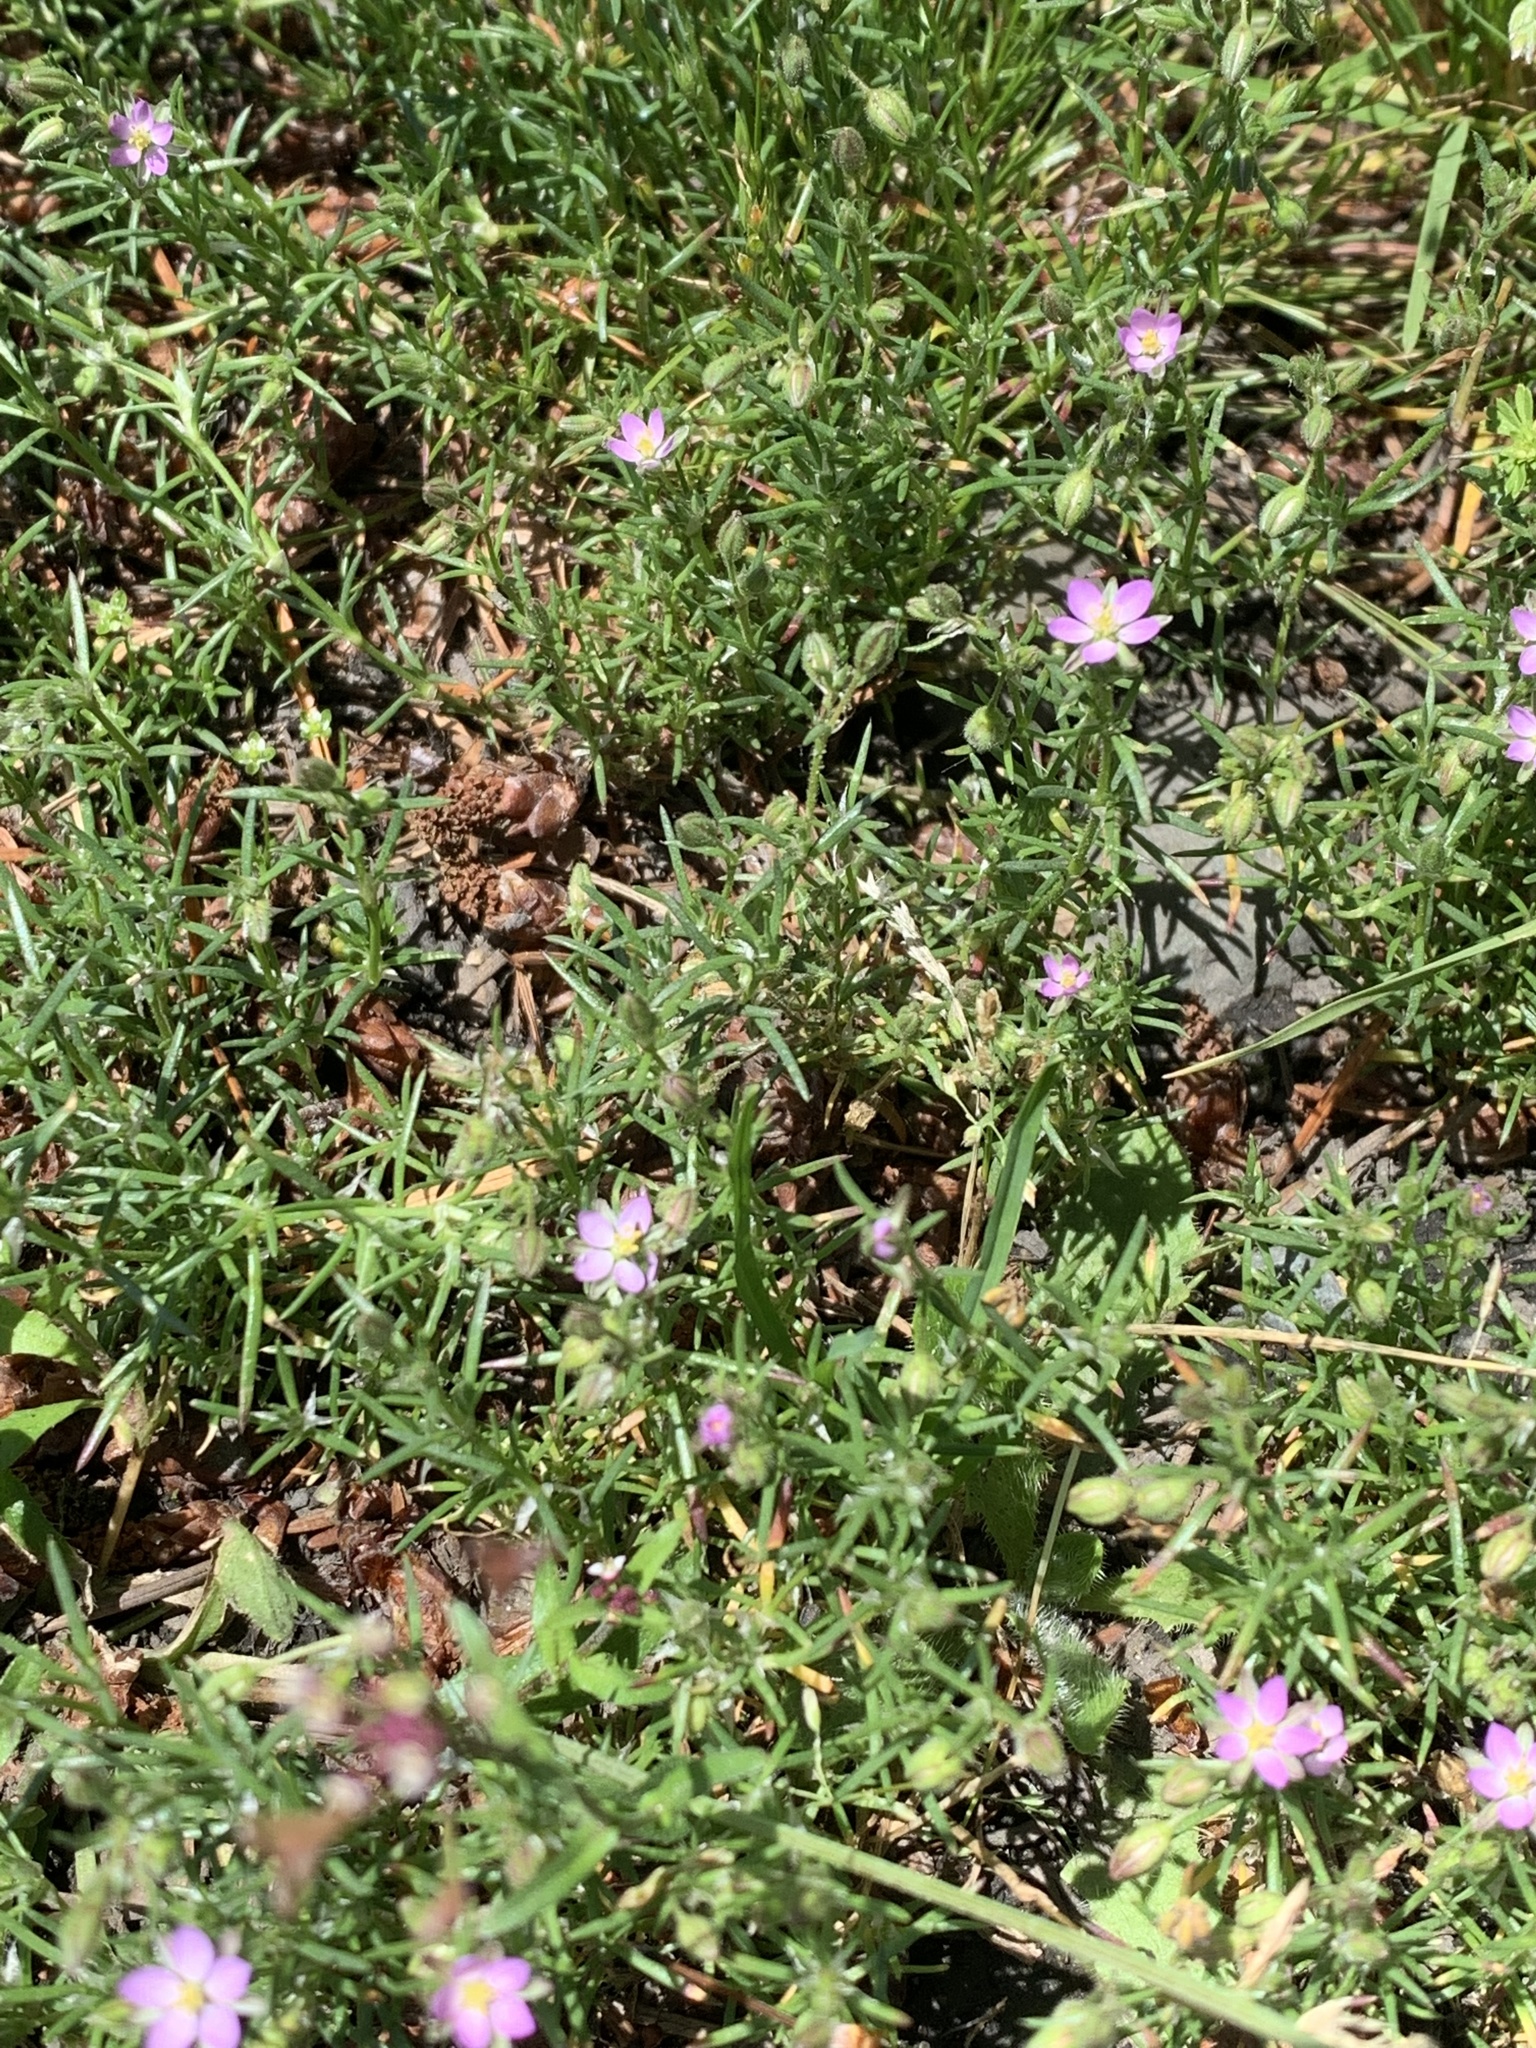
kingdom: Plantae
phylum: Tracheophyta
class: Magnoliopsida
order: Caryophyllales
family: Caryophyllaceae
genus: Spergularia
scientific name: Spergularia rubra
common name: Red sand-spurrey
